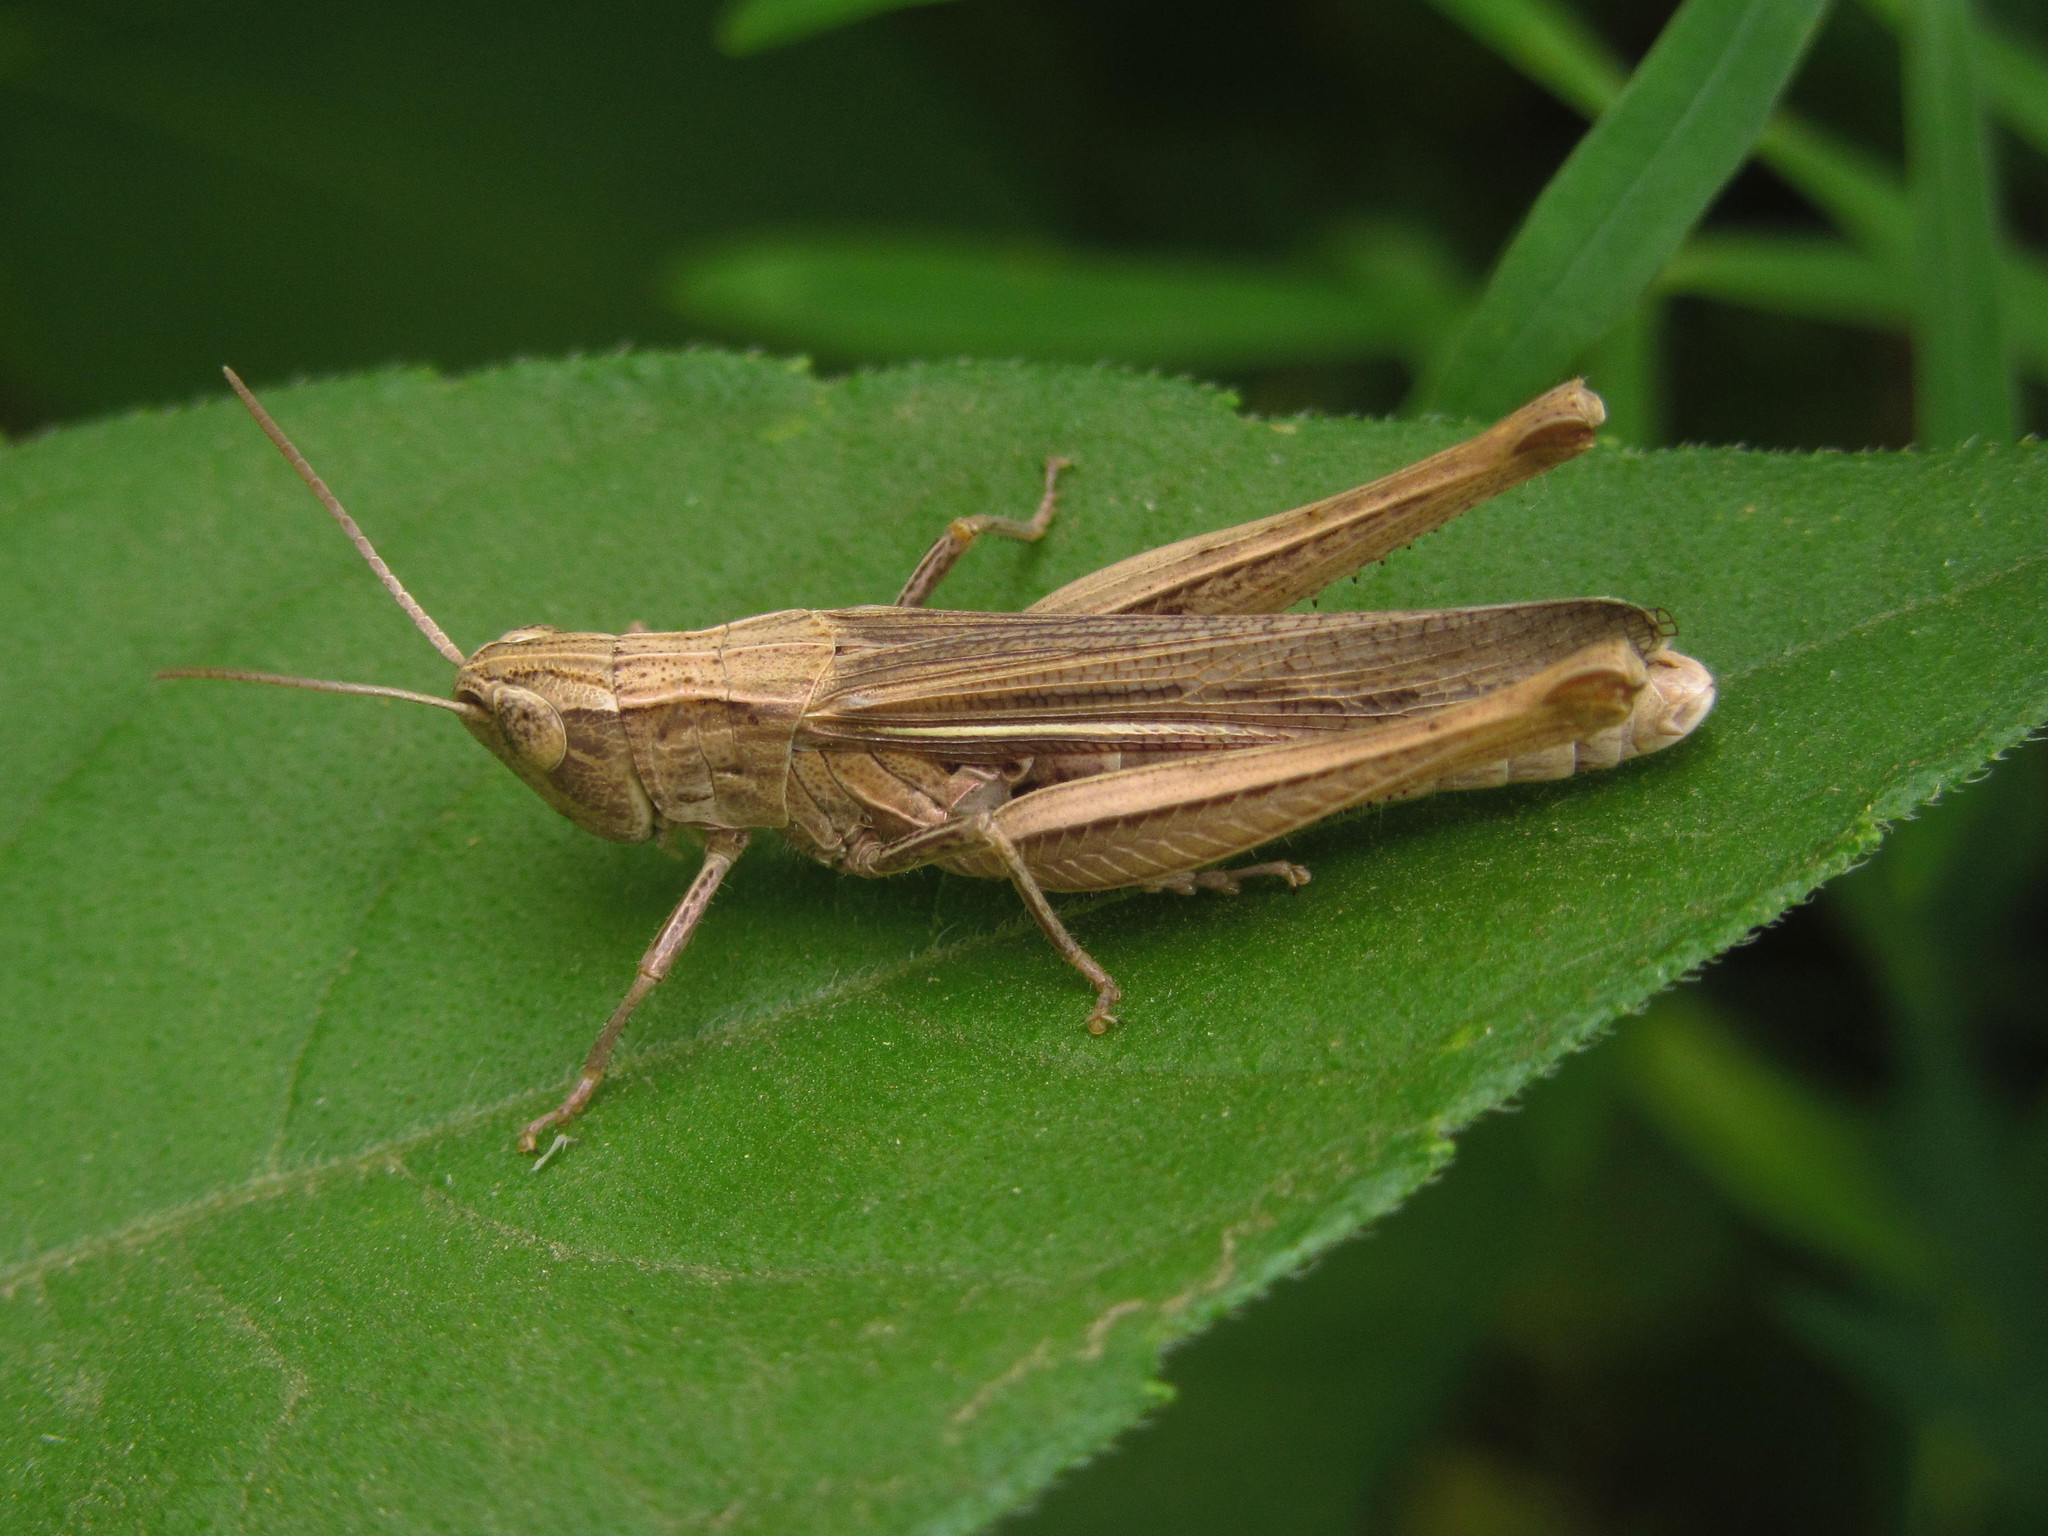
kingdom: Animalia
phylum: Arthropoda
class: Insecta
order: Orthoptera
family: Acrididae
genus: Chorthippus
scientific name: Chorthippus dichrous
